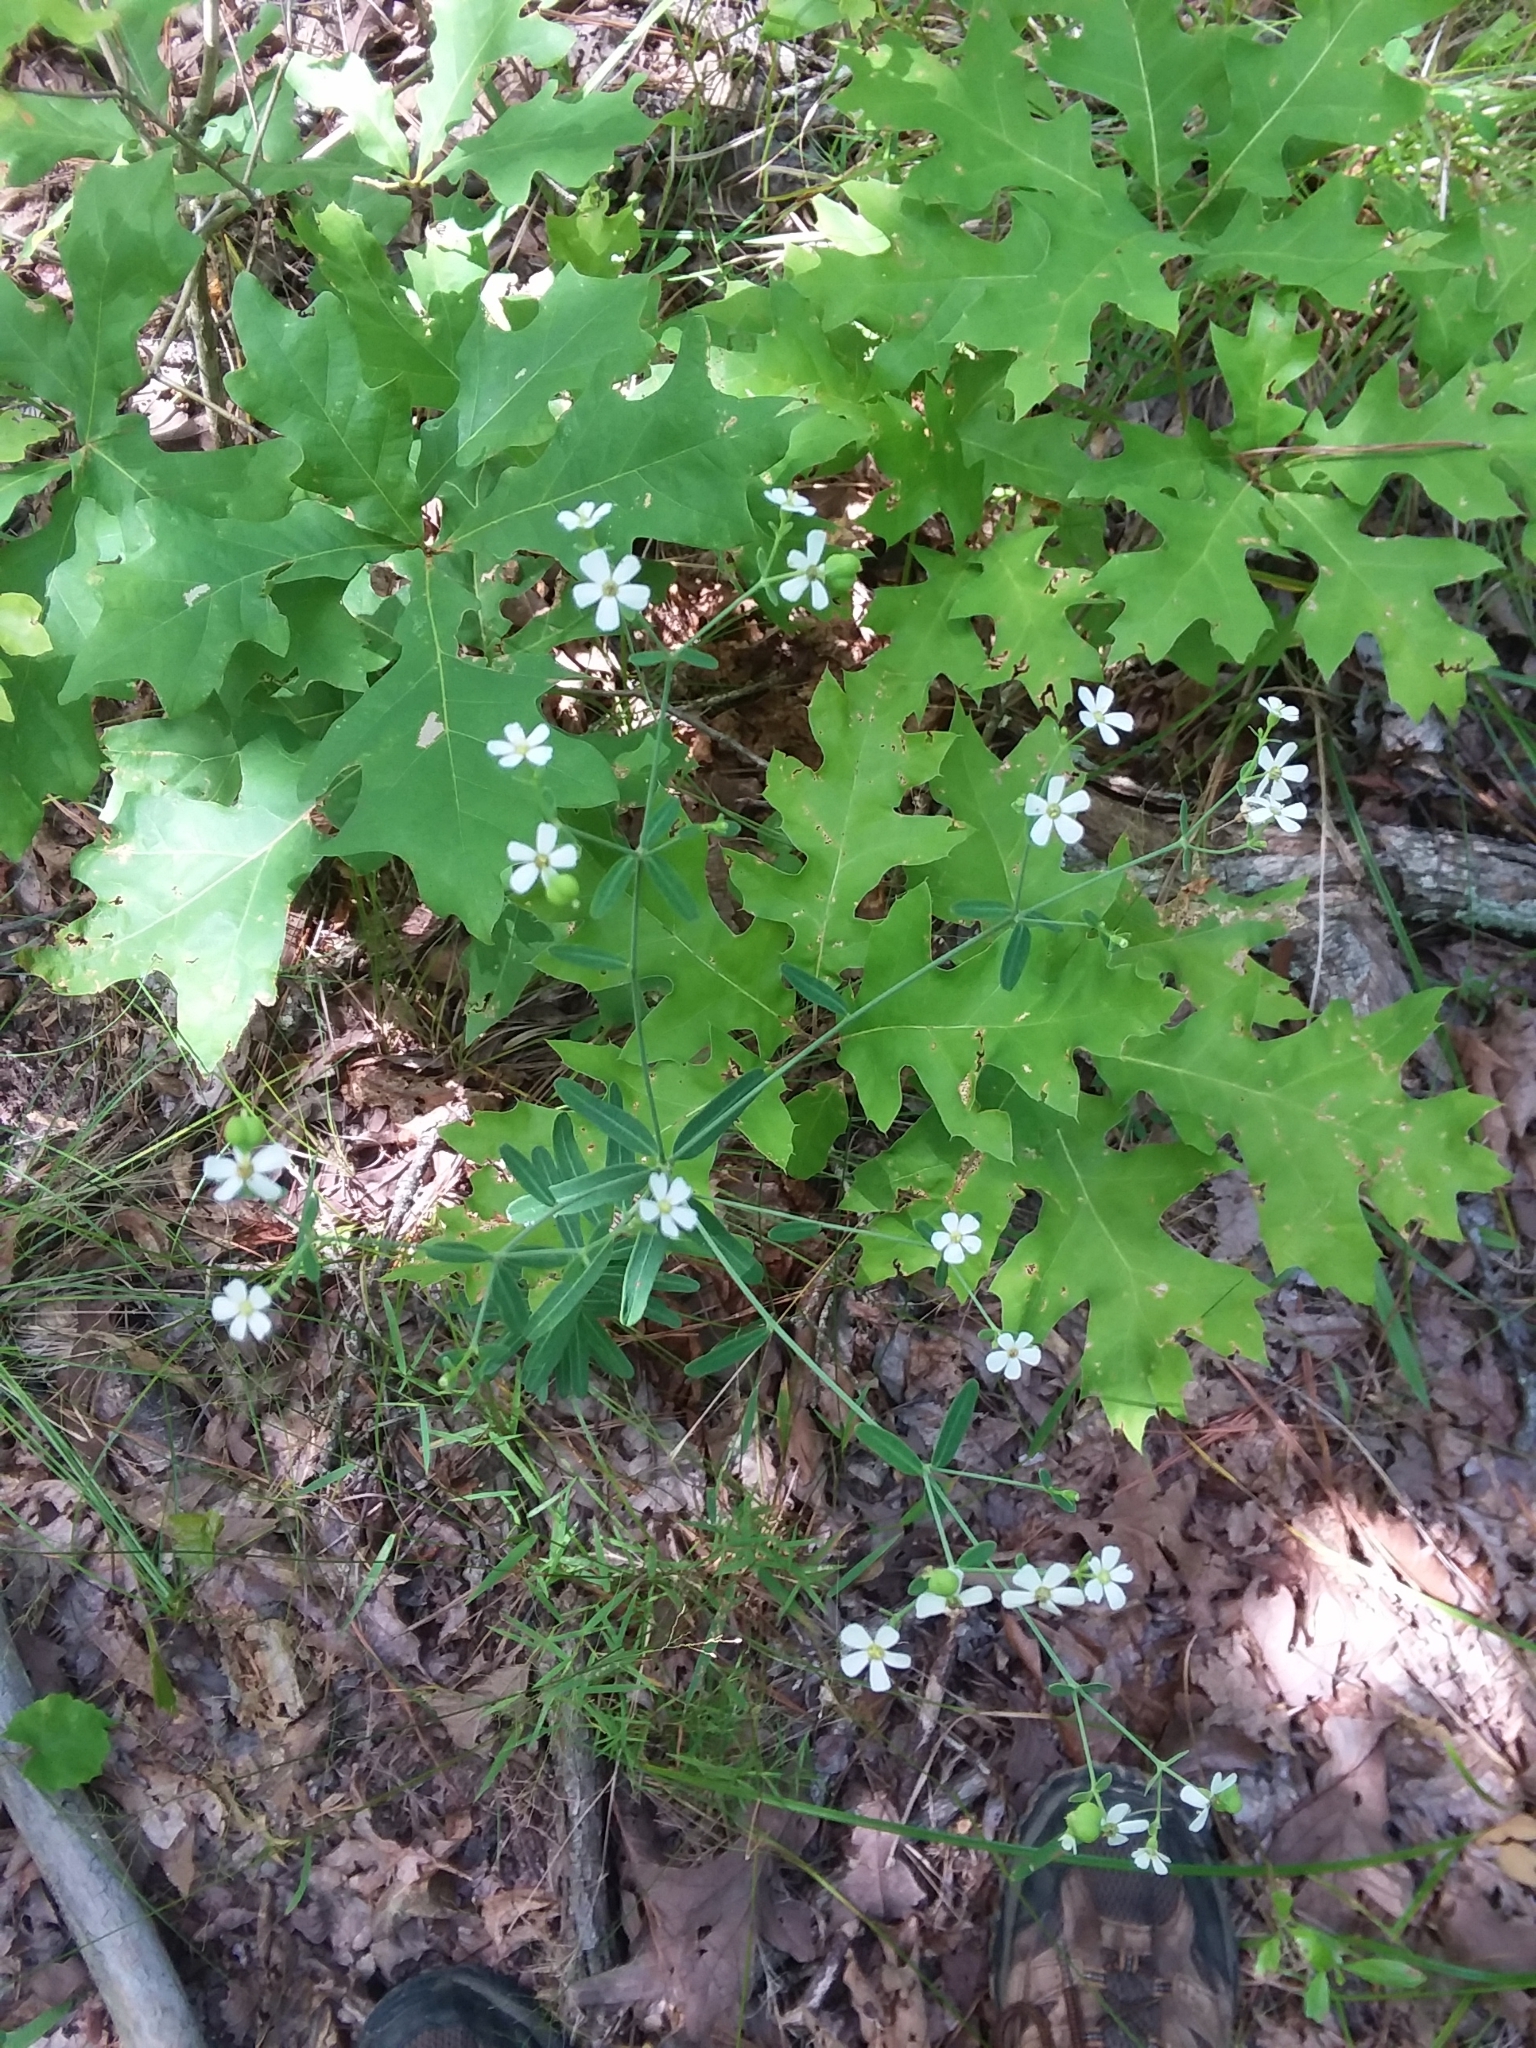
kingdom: Plantae
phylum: Tracheophyta
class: Magnoliopsida
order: Malpighiales
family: Euphorbiaceae
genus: Euphorbia
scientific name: Euphorbia corollata
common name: Flowering spurge
